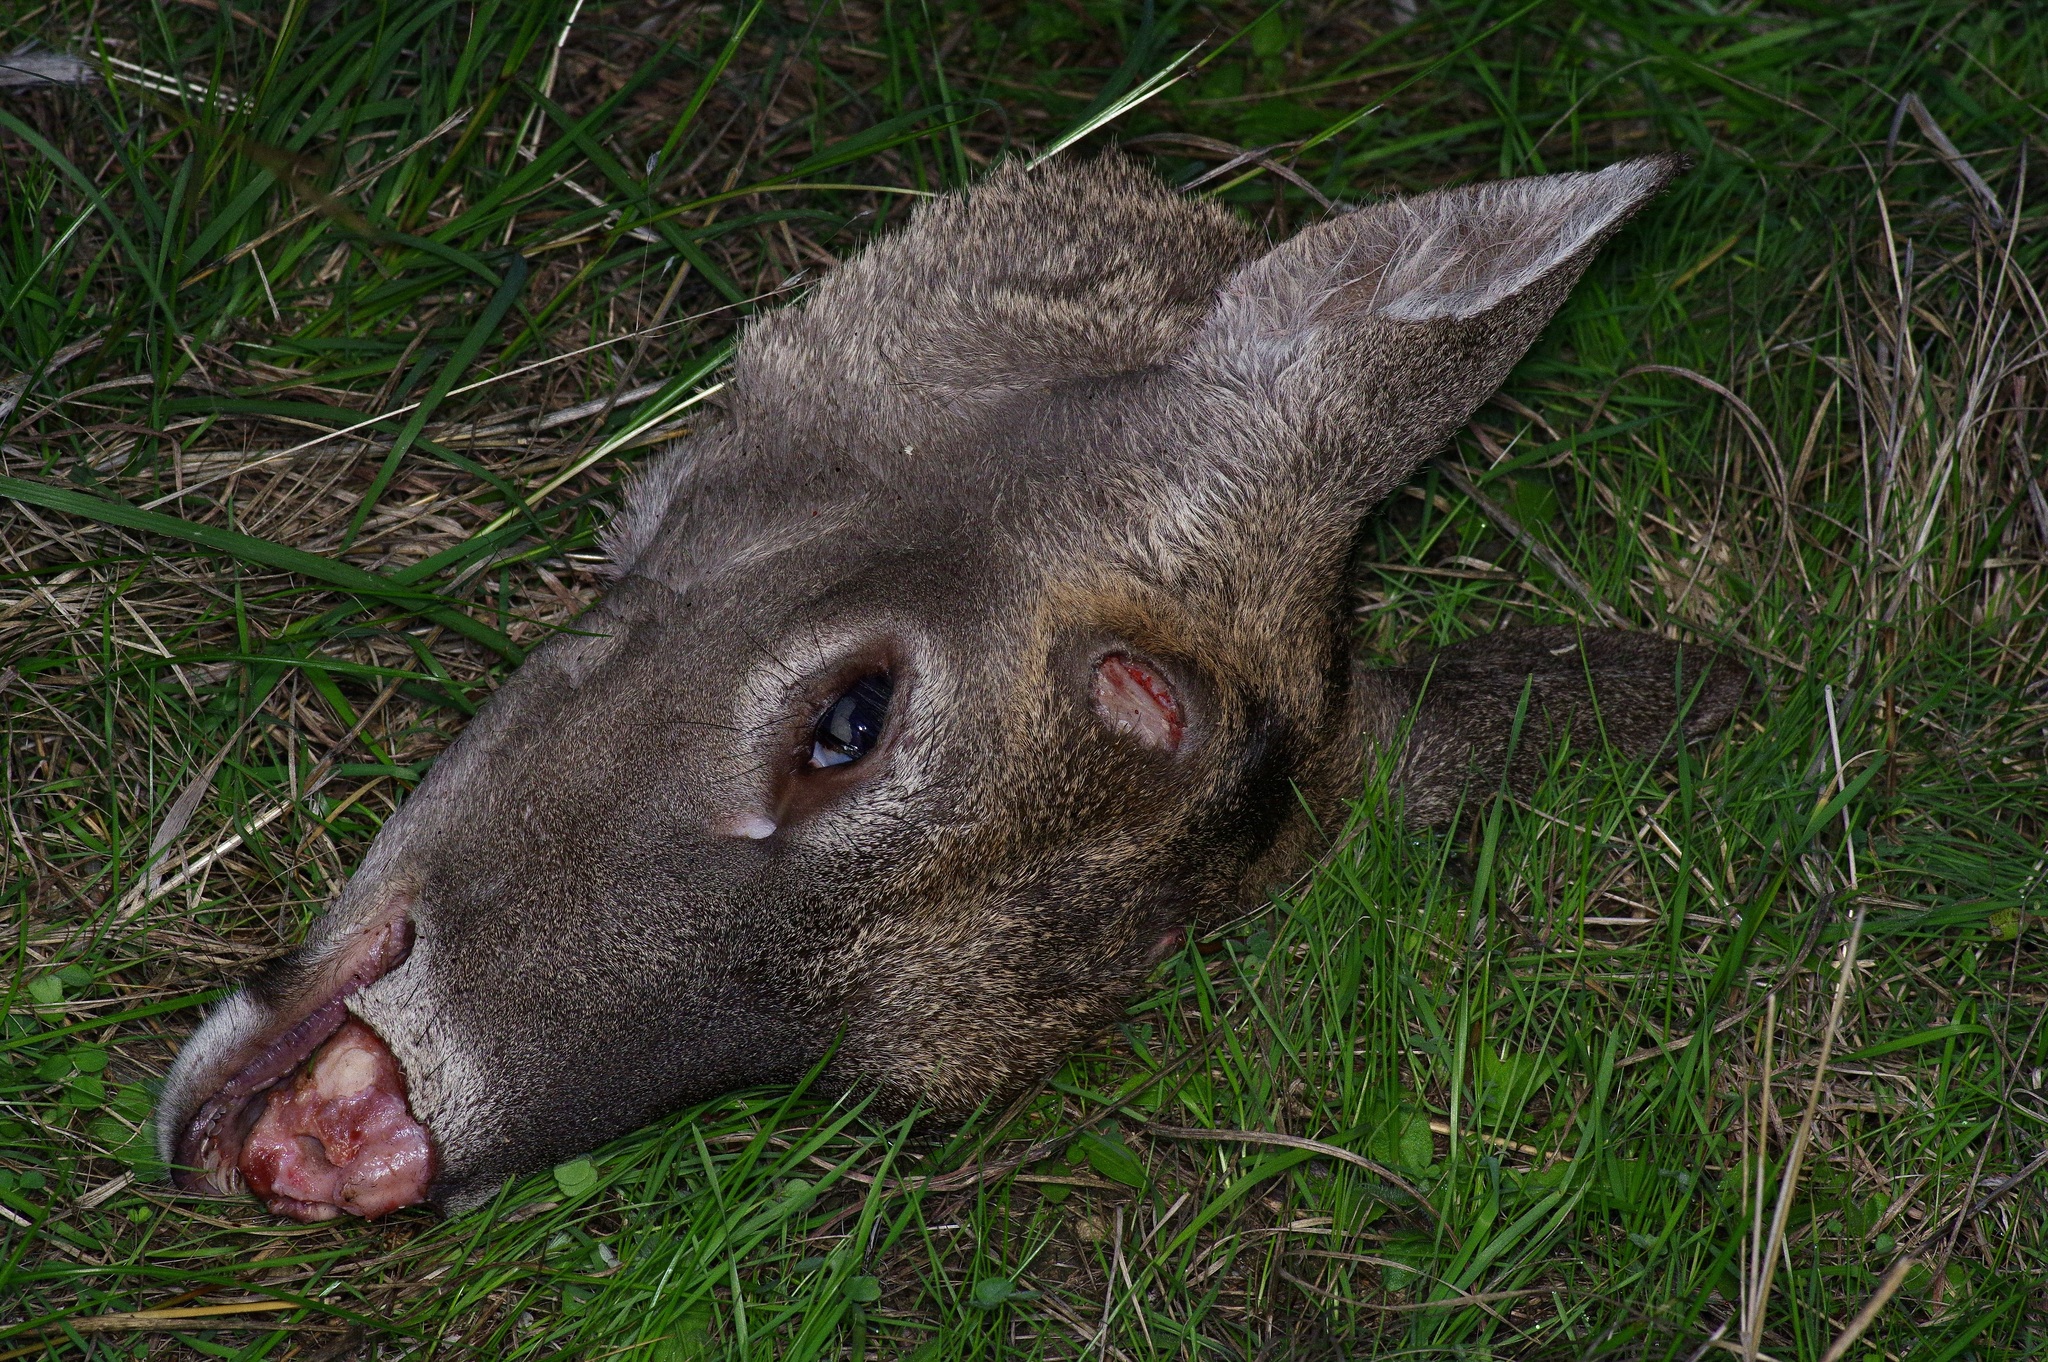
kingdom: Animalia
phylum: Chordata
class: Mammalia
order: Artiodactyla
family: Cervidae
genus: Odocoileus
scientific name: Odocoileus virginianus
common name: White-tailed deer
